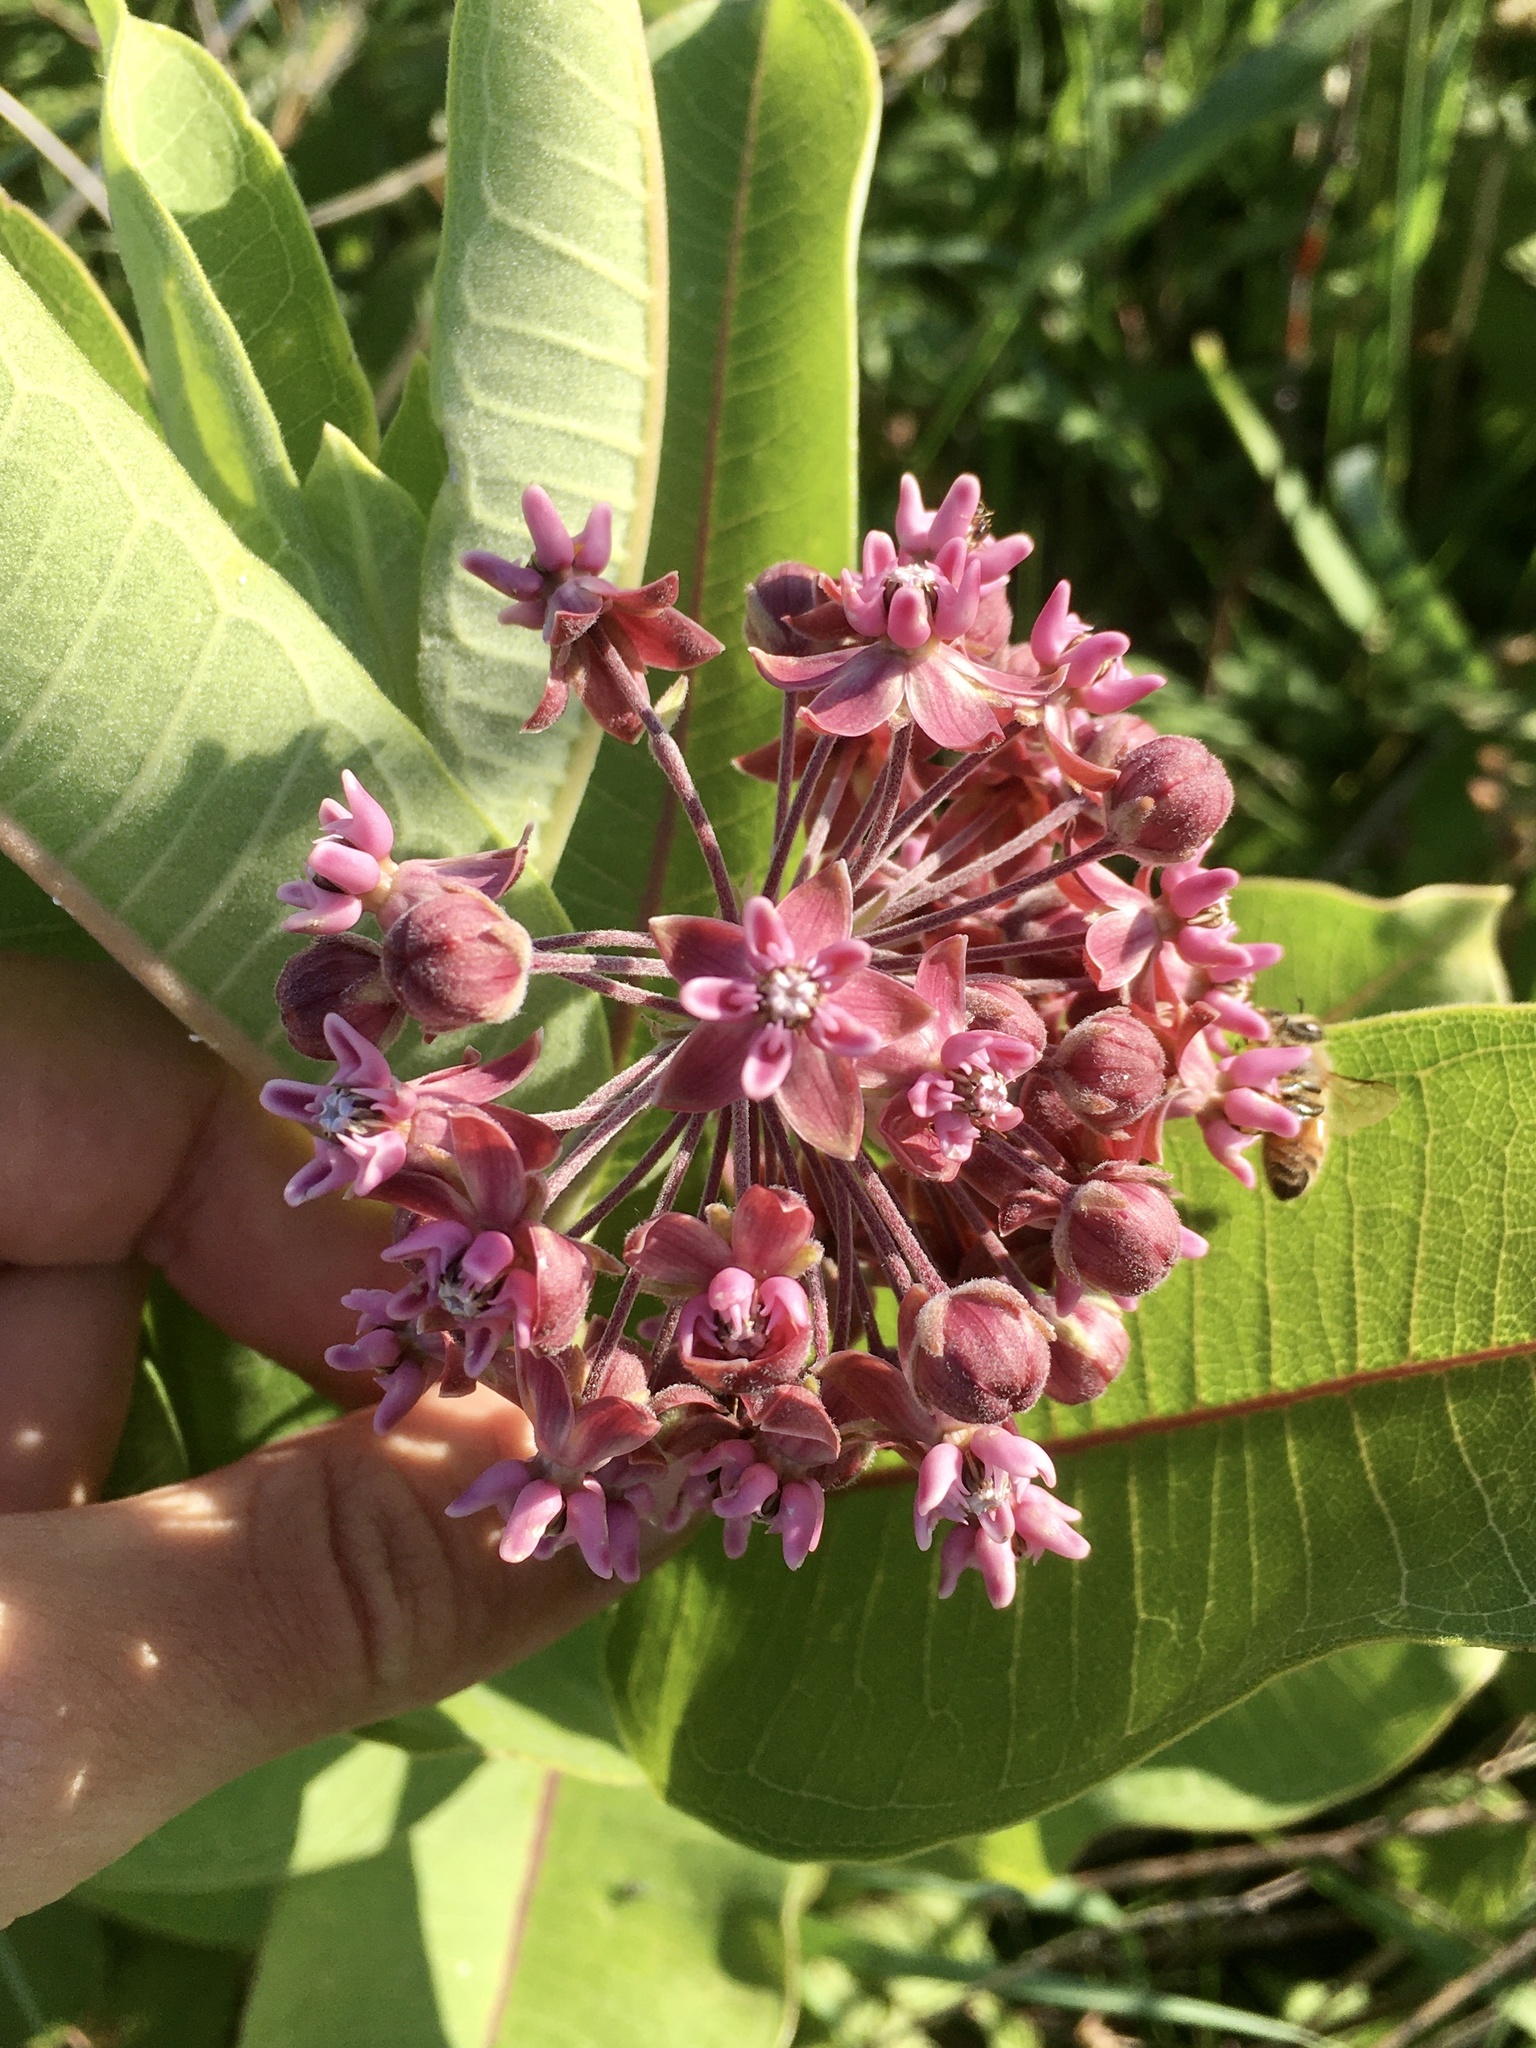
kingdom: Plantae
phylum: Tracheophyta
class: Magnoliopsida
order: Gentianales
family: Apocynaceae
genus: Asclepias
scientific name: Asclepias syriaca
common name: Common milkweed
